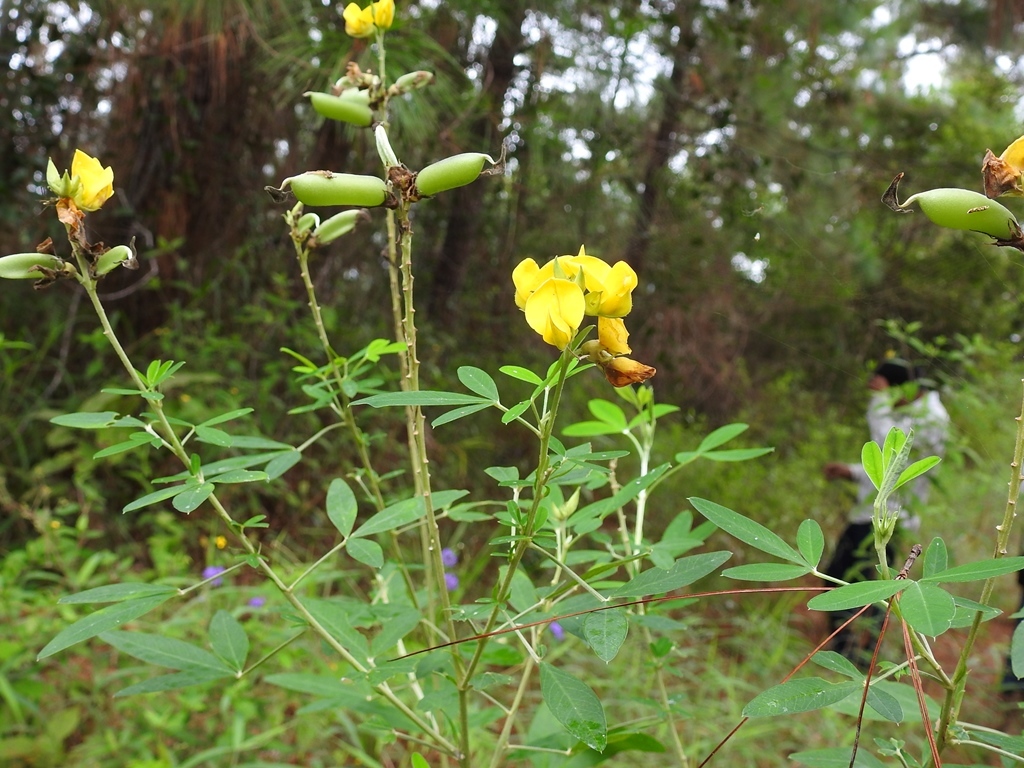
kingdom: Plantae
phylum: Tracheophyta
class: Magnoliopsida
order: Fabales
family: Fabaceae
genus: Crotalaria
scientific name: Crotalaria cajanifolia
